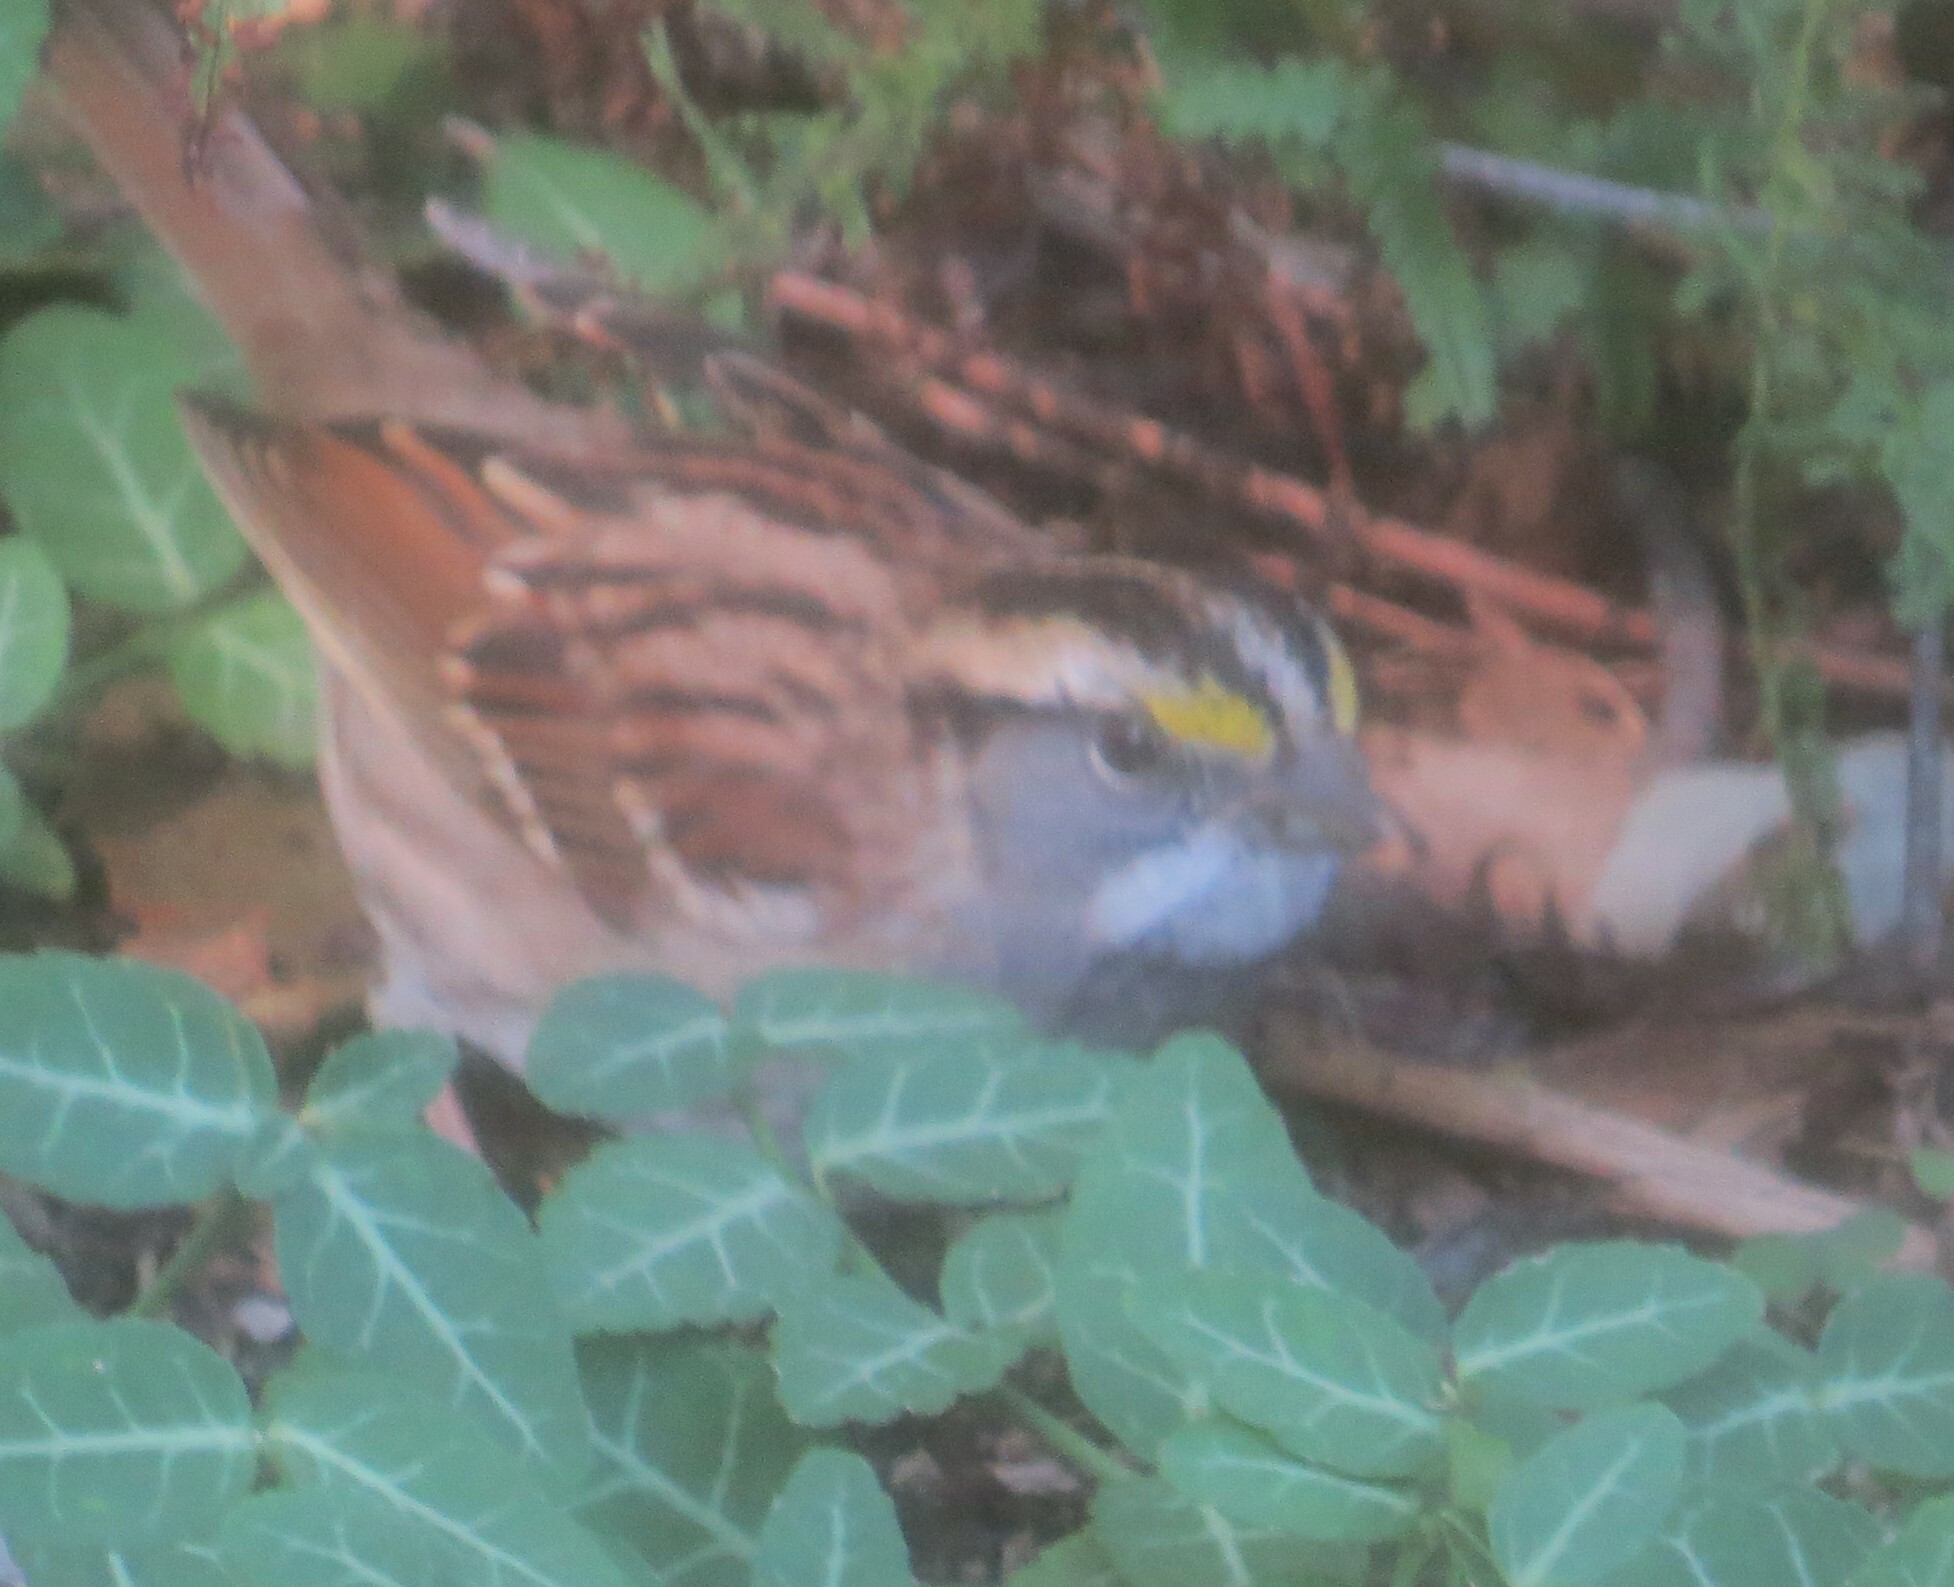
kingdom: Animalia
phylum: Chordata
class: Aves
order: Passeriformes
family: Passerellidae
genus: Zonotrichia
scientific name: Zonotrichia albicollis
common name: White-throated sparrow
